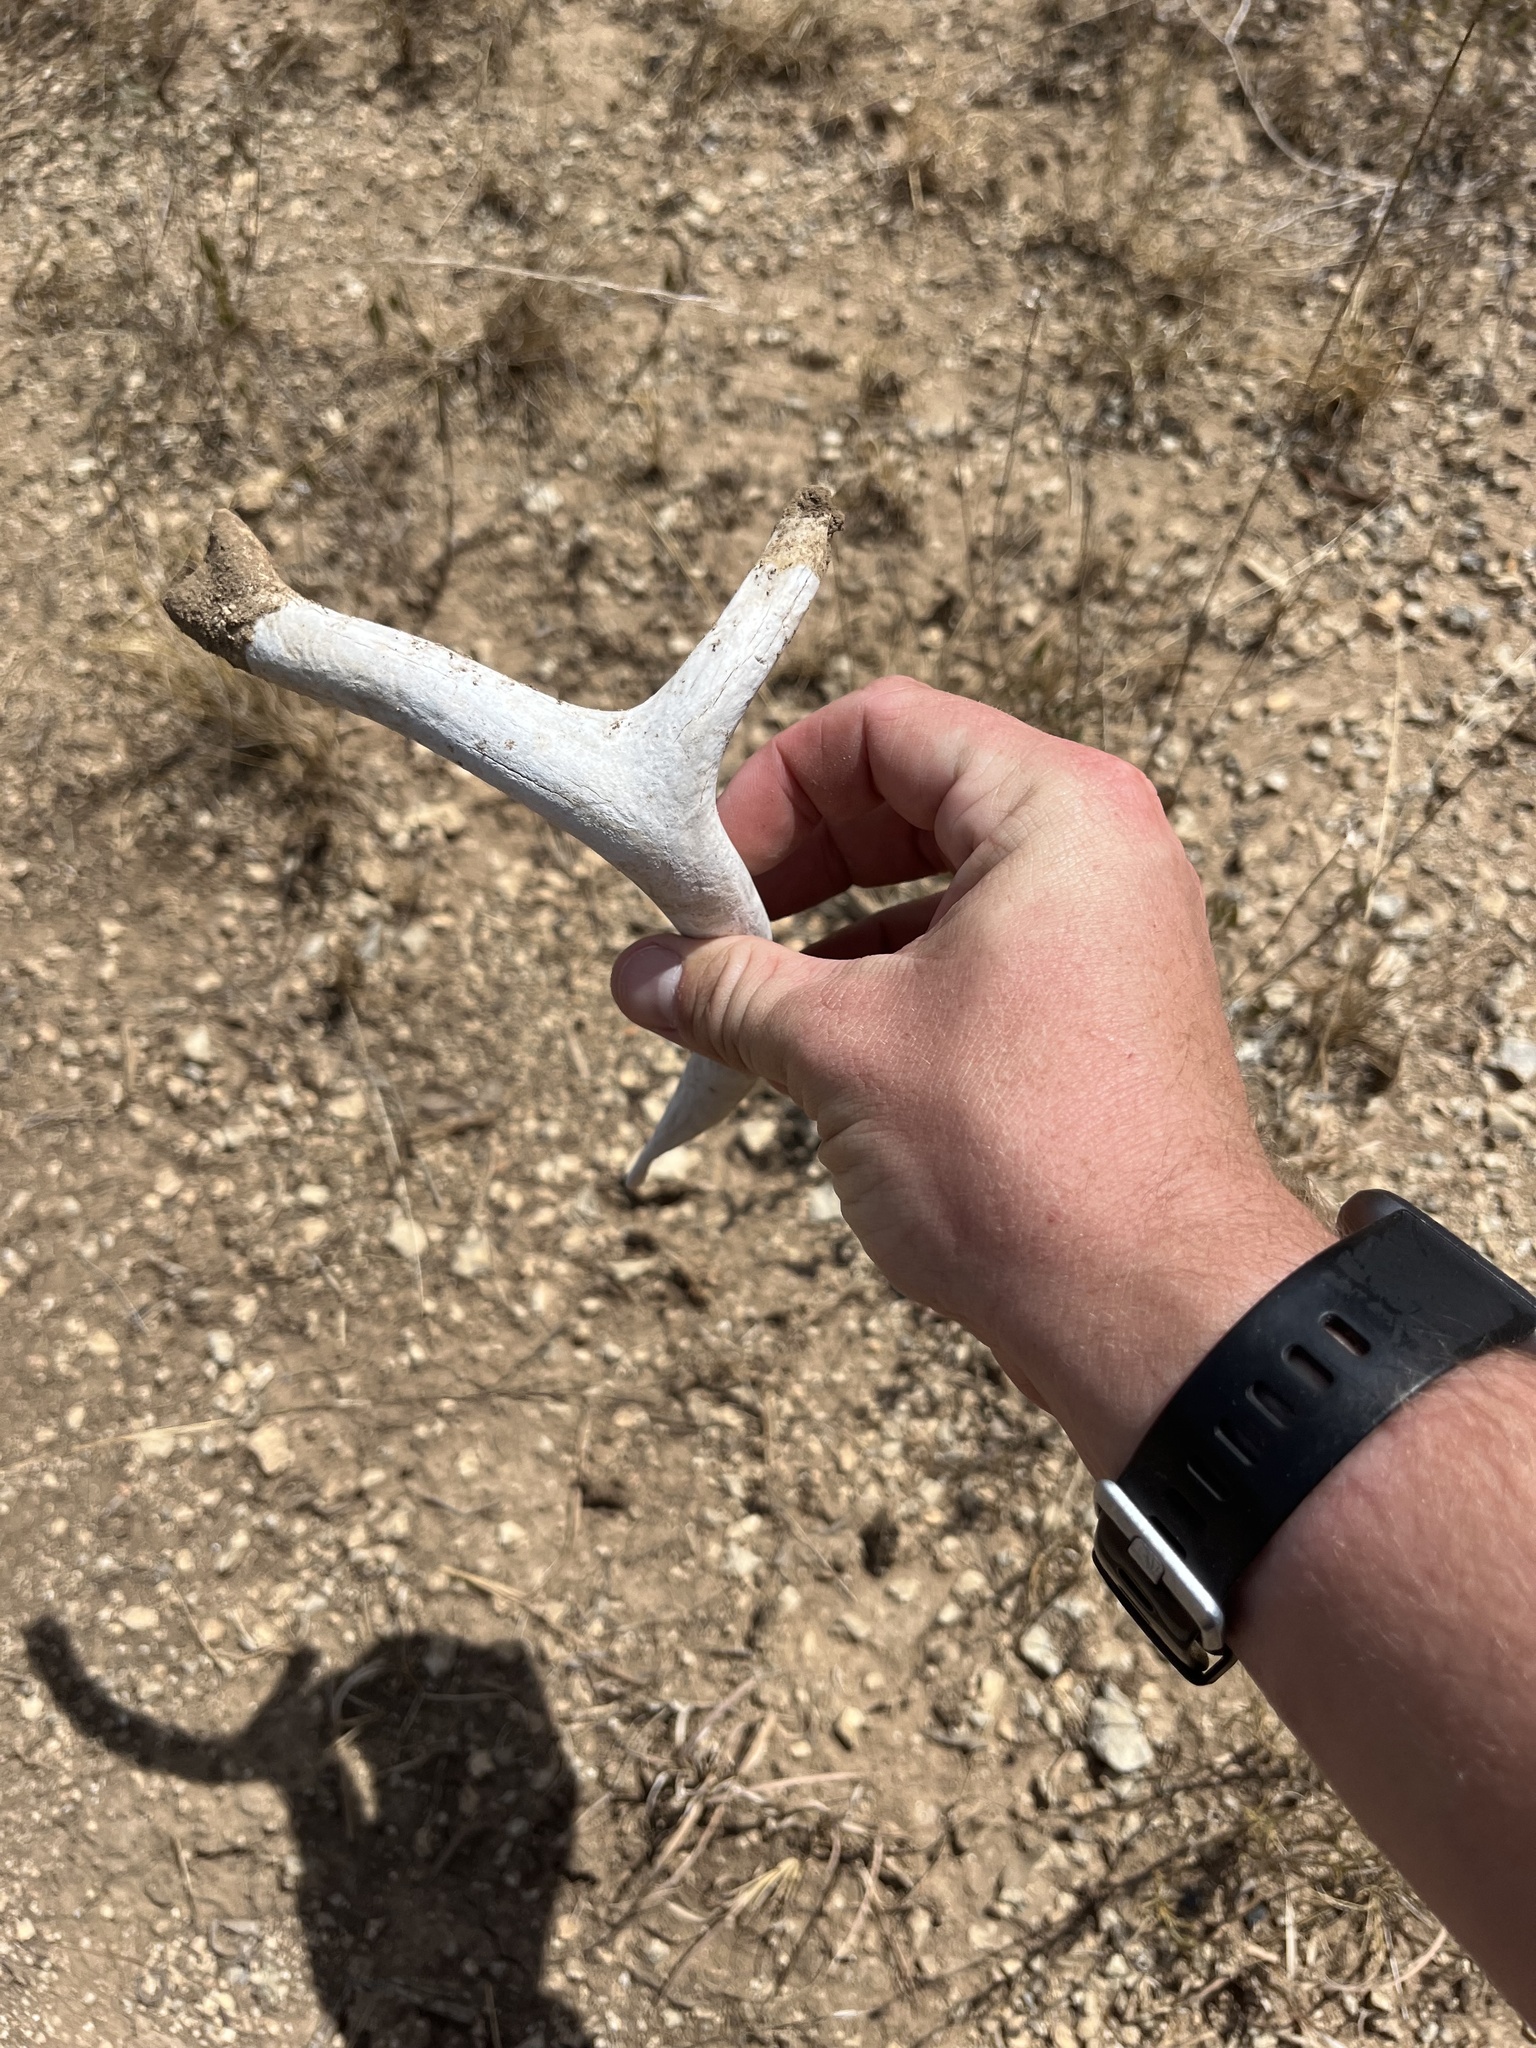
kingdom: Animalia
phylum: Chordata
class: Mammalia
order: Artiodactyla
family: Cervidae
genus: Odocoileus
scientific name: Odocoileus virginianus
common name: White-tailed deer
